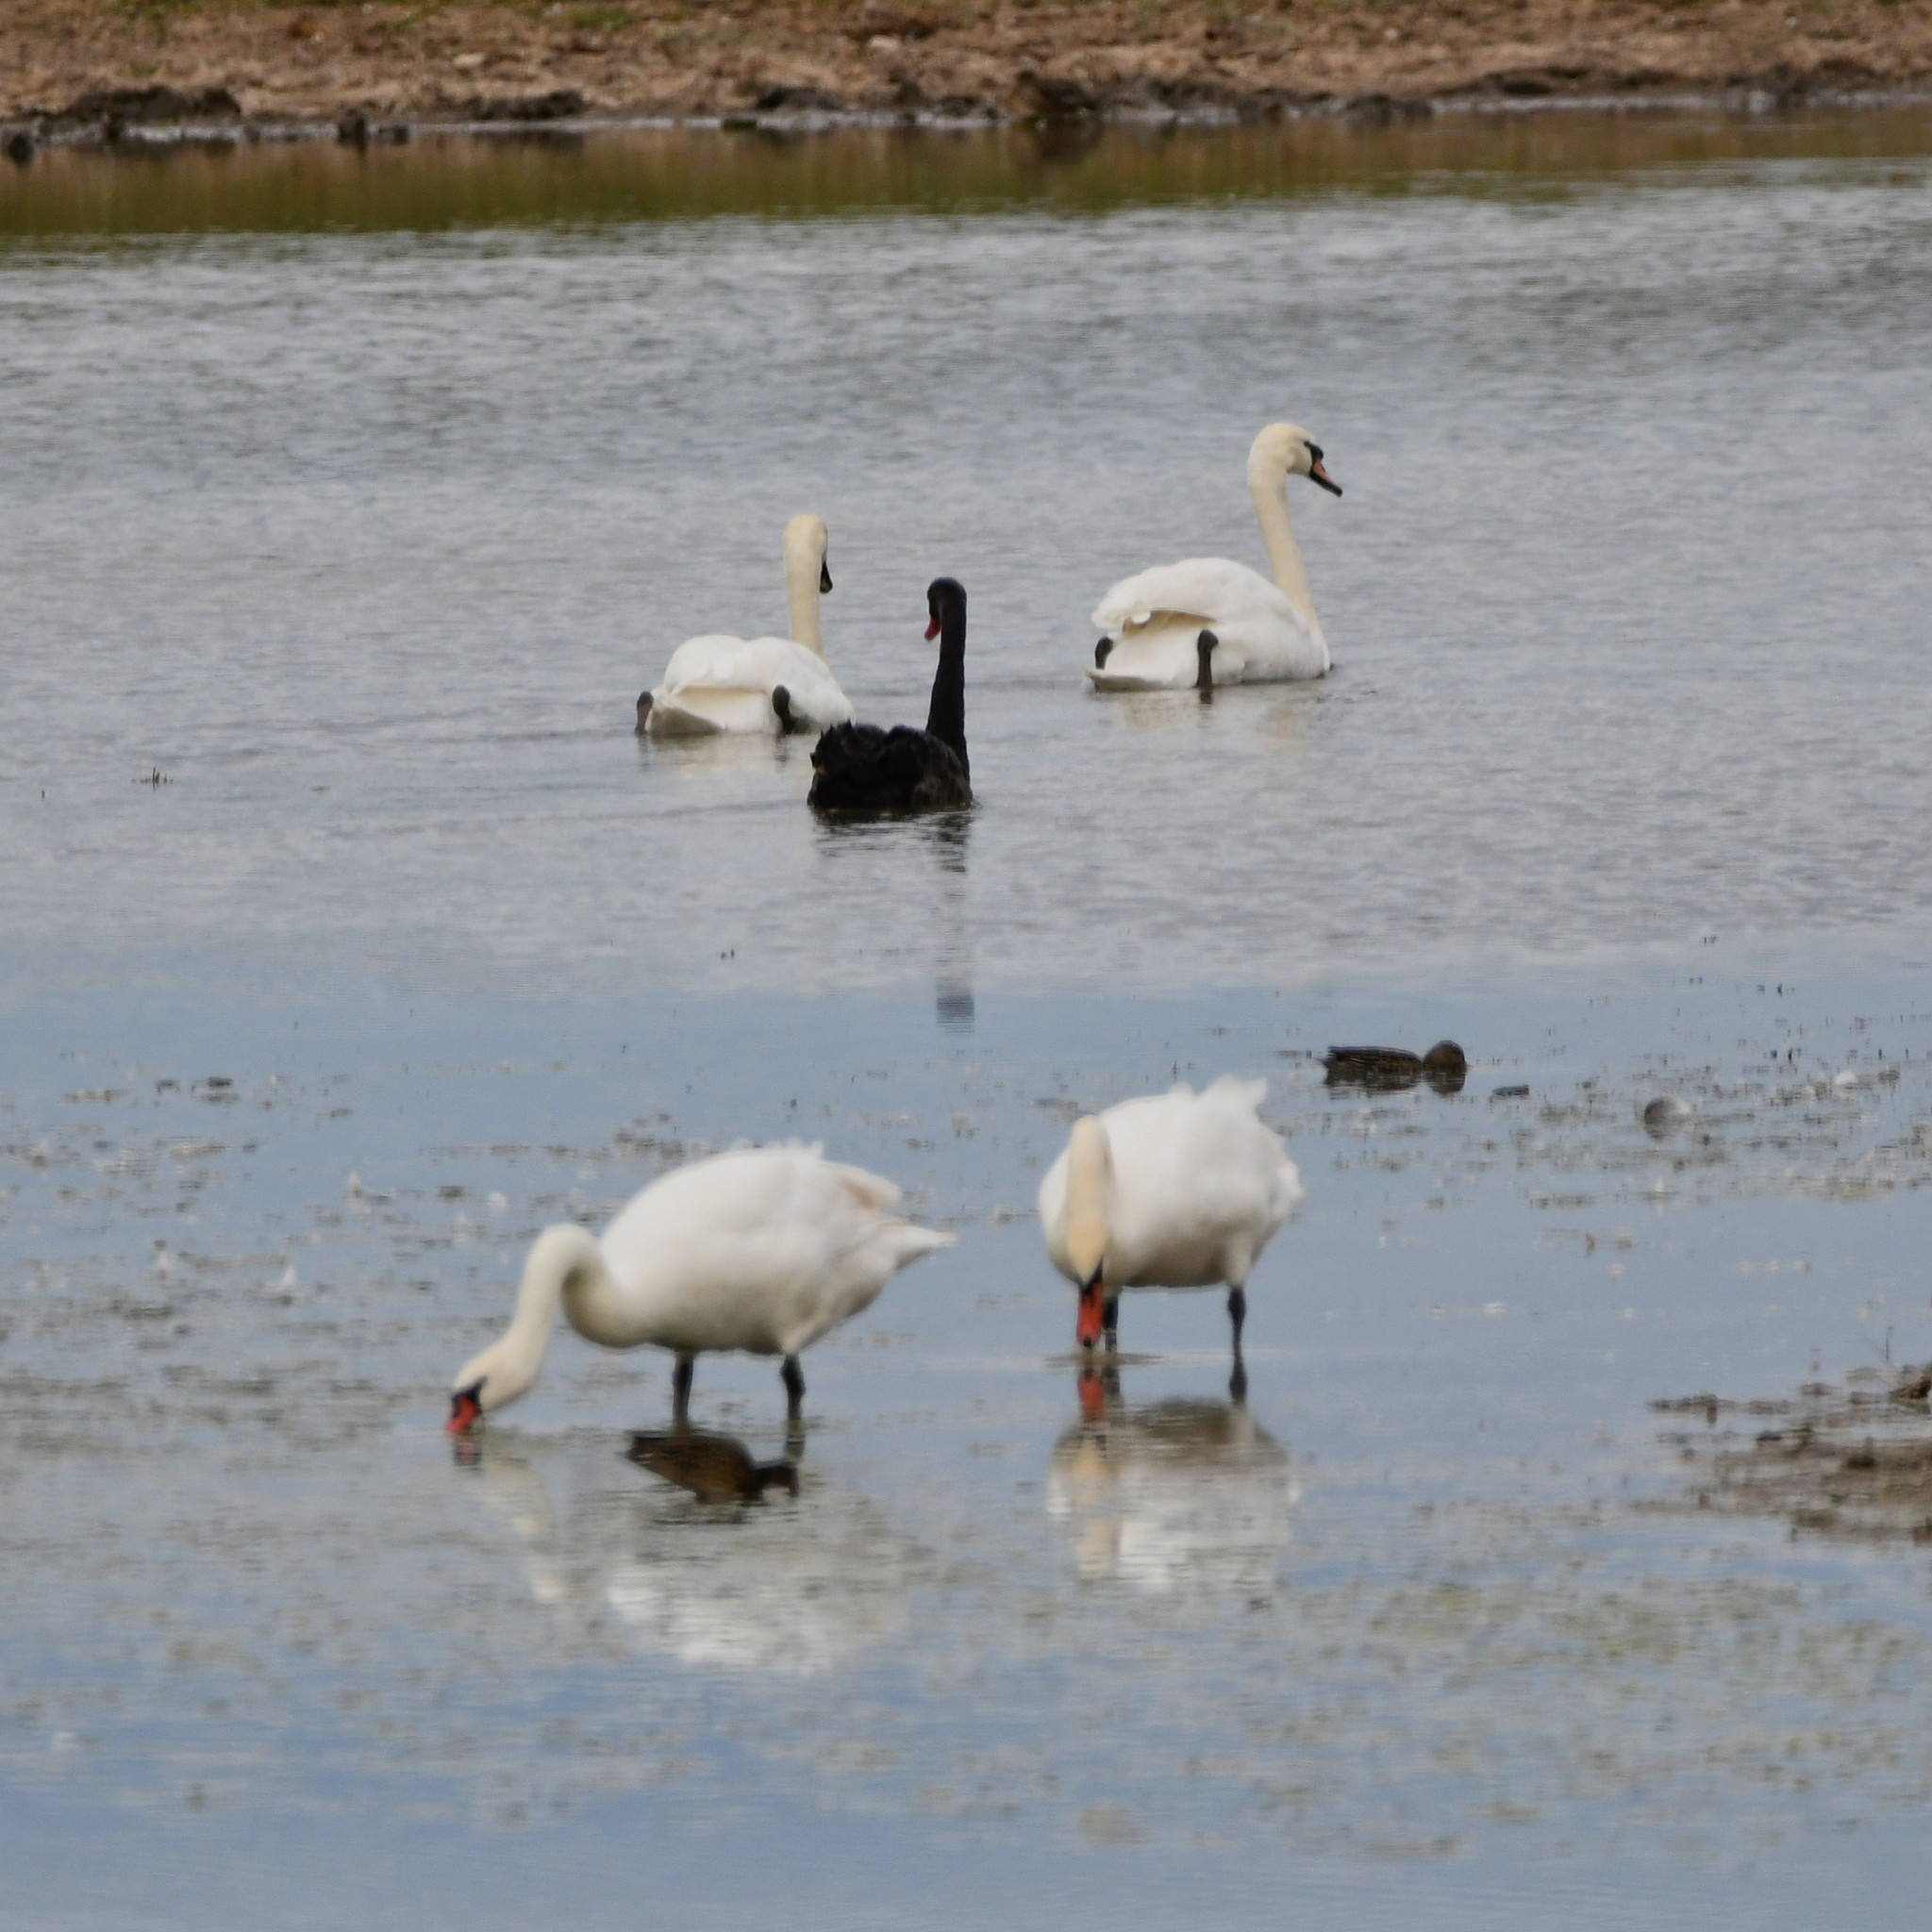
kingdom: Animalia
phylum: Chordata
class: Aves
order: Anseriformes
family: Anatidae
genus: Cygnus
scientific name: Cygnus olor
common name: Mute swan
